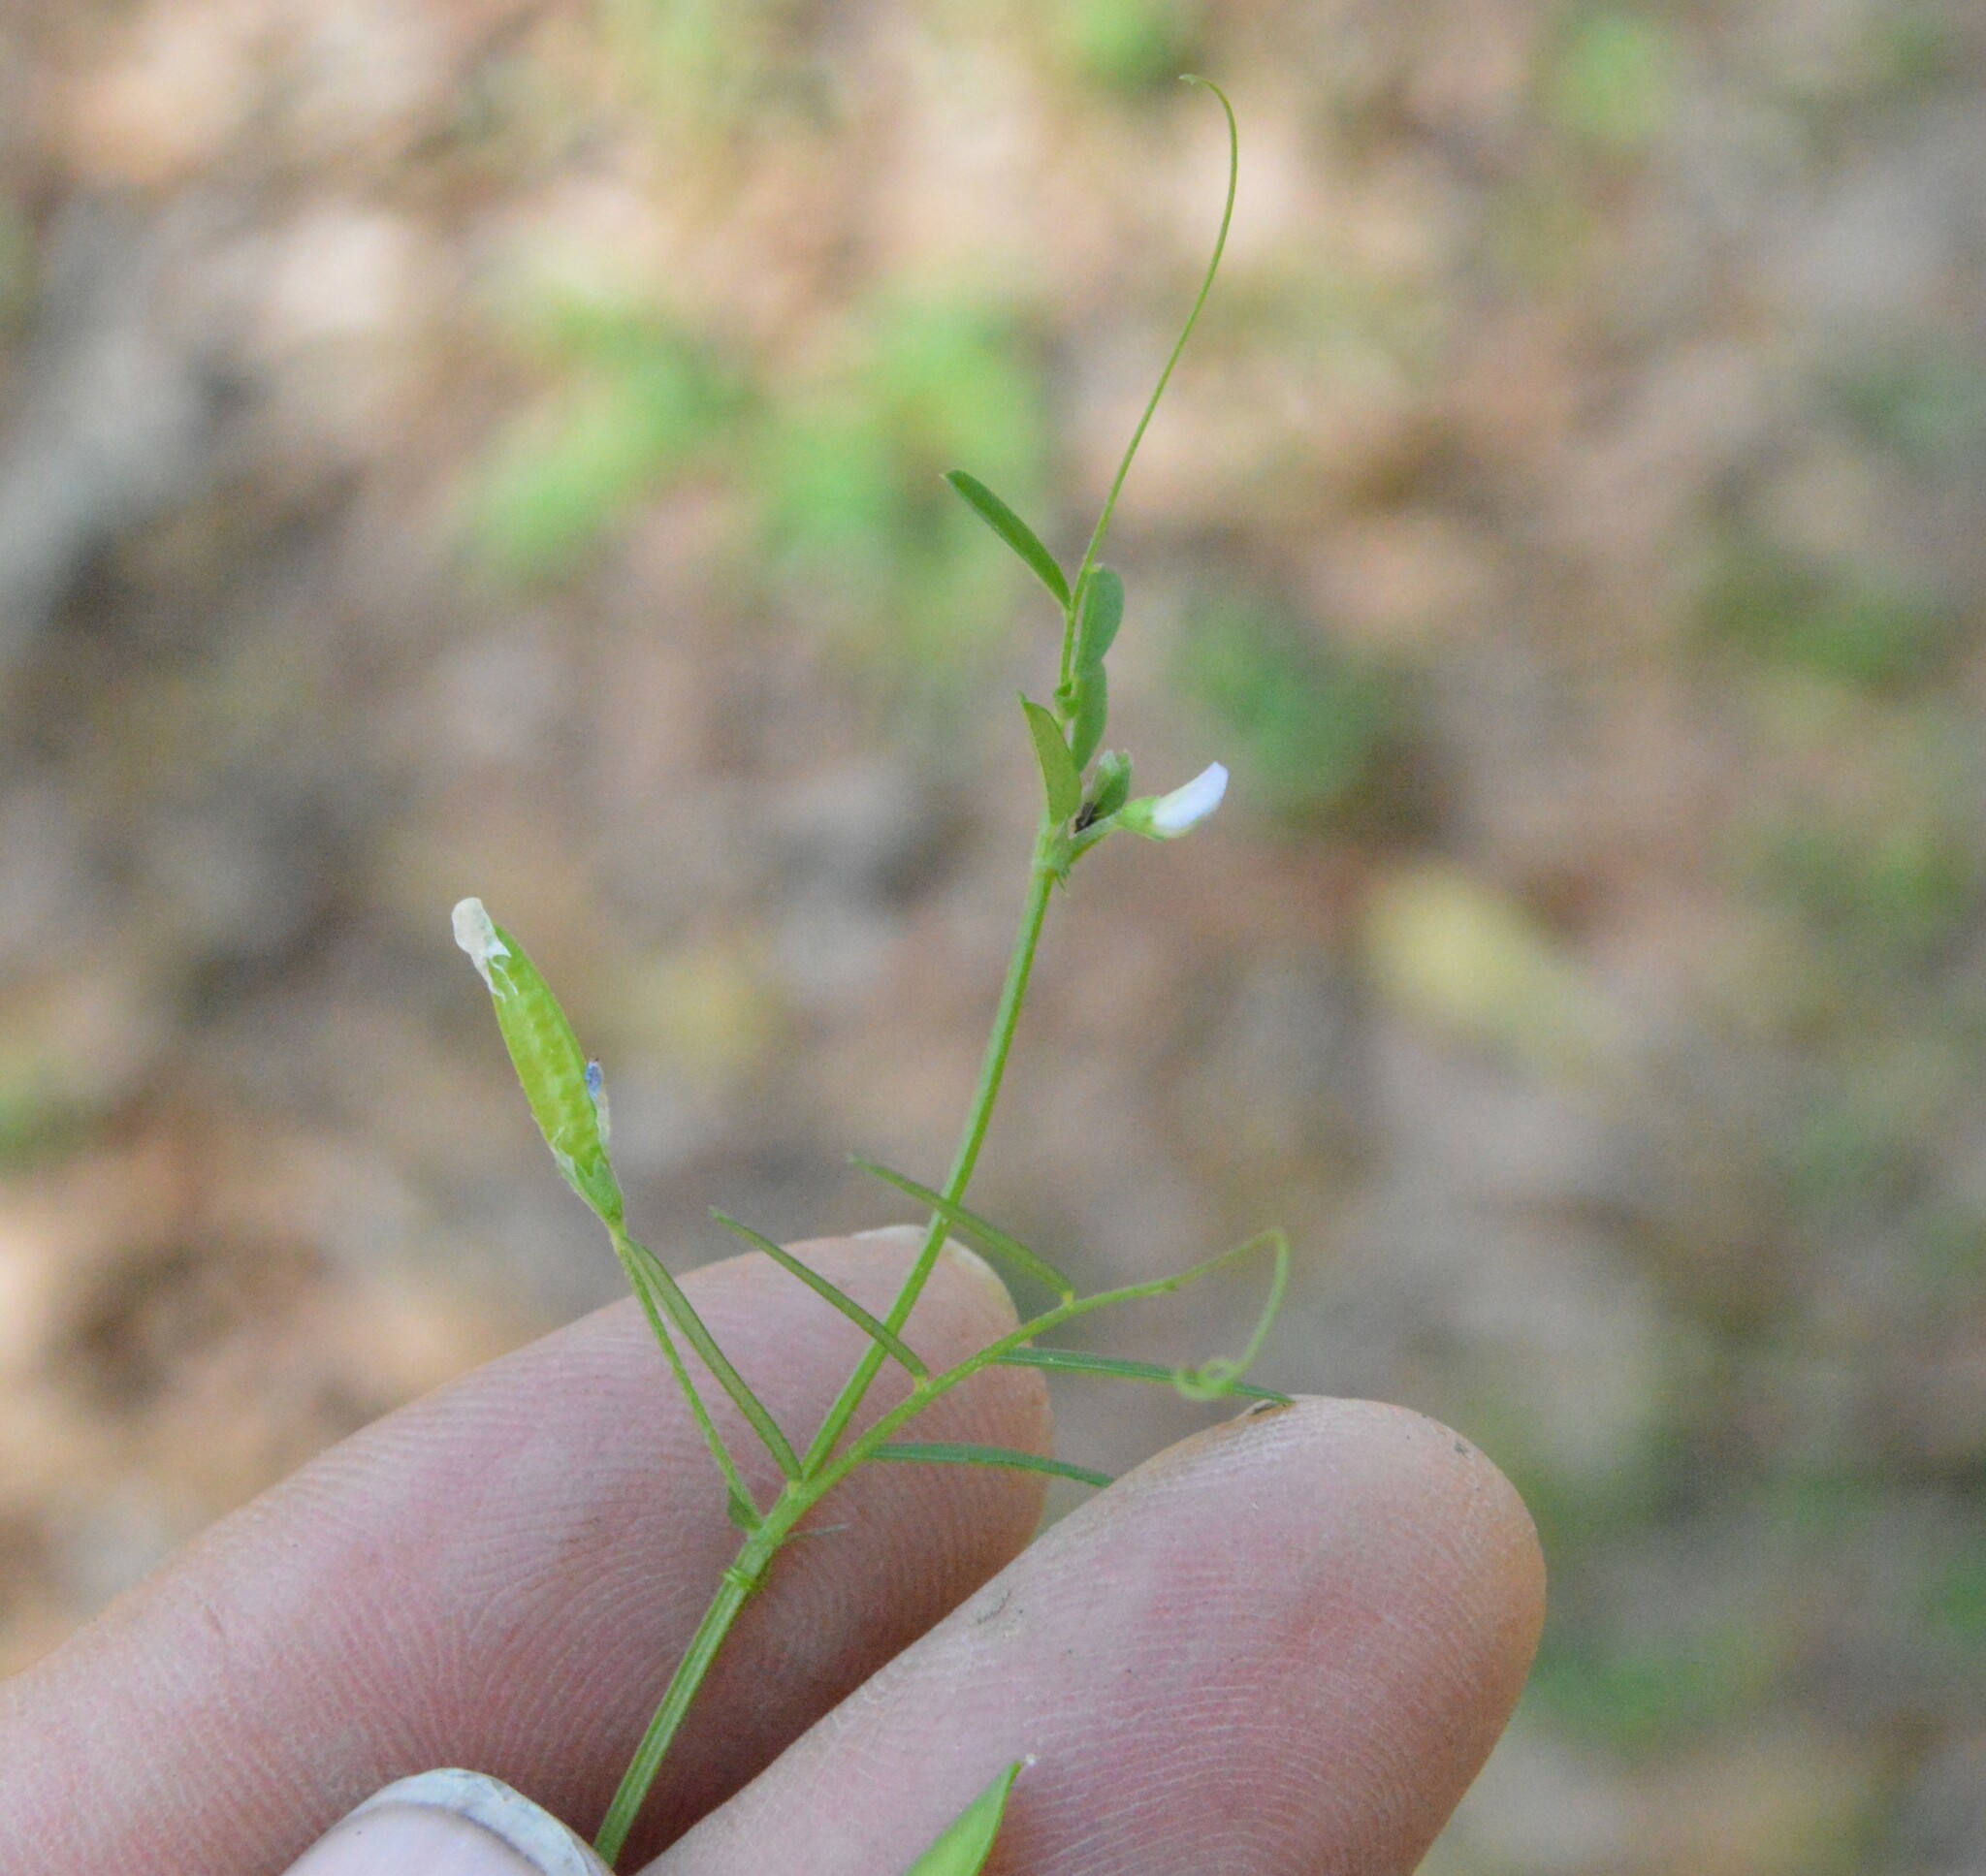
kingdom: Plantae
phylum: Tracheophyta
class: Magnoliopsida
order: Fabales
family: Fabaceae
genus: Vicia
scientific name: Vicia minutiflora
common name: Pygmy-flower vetch
